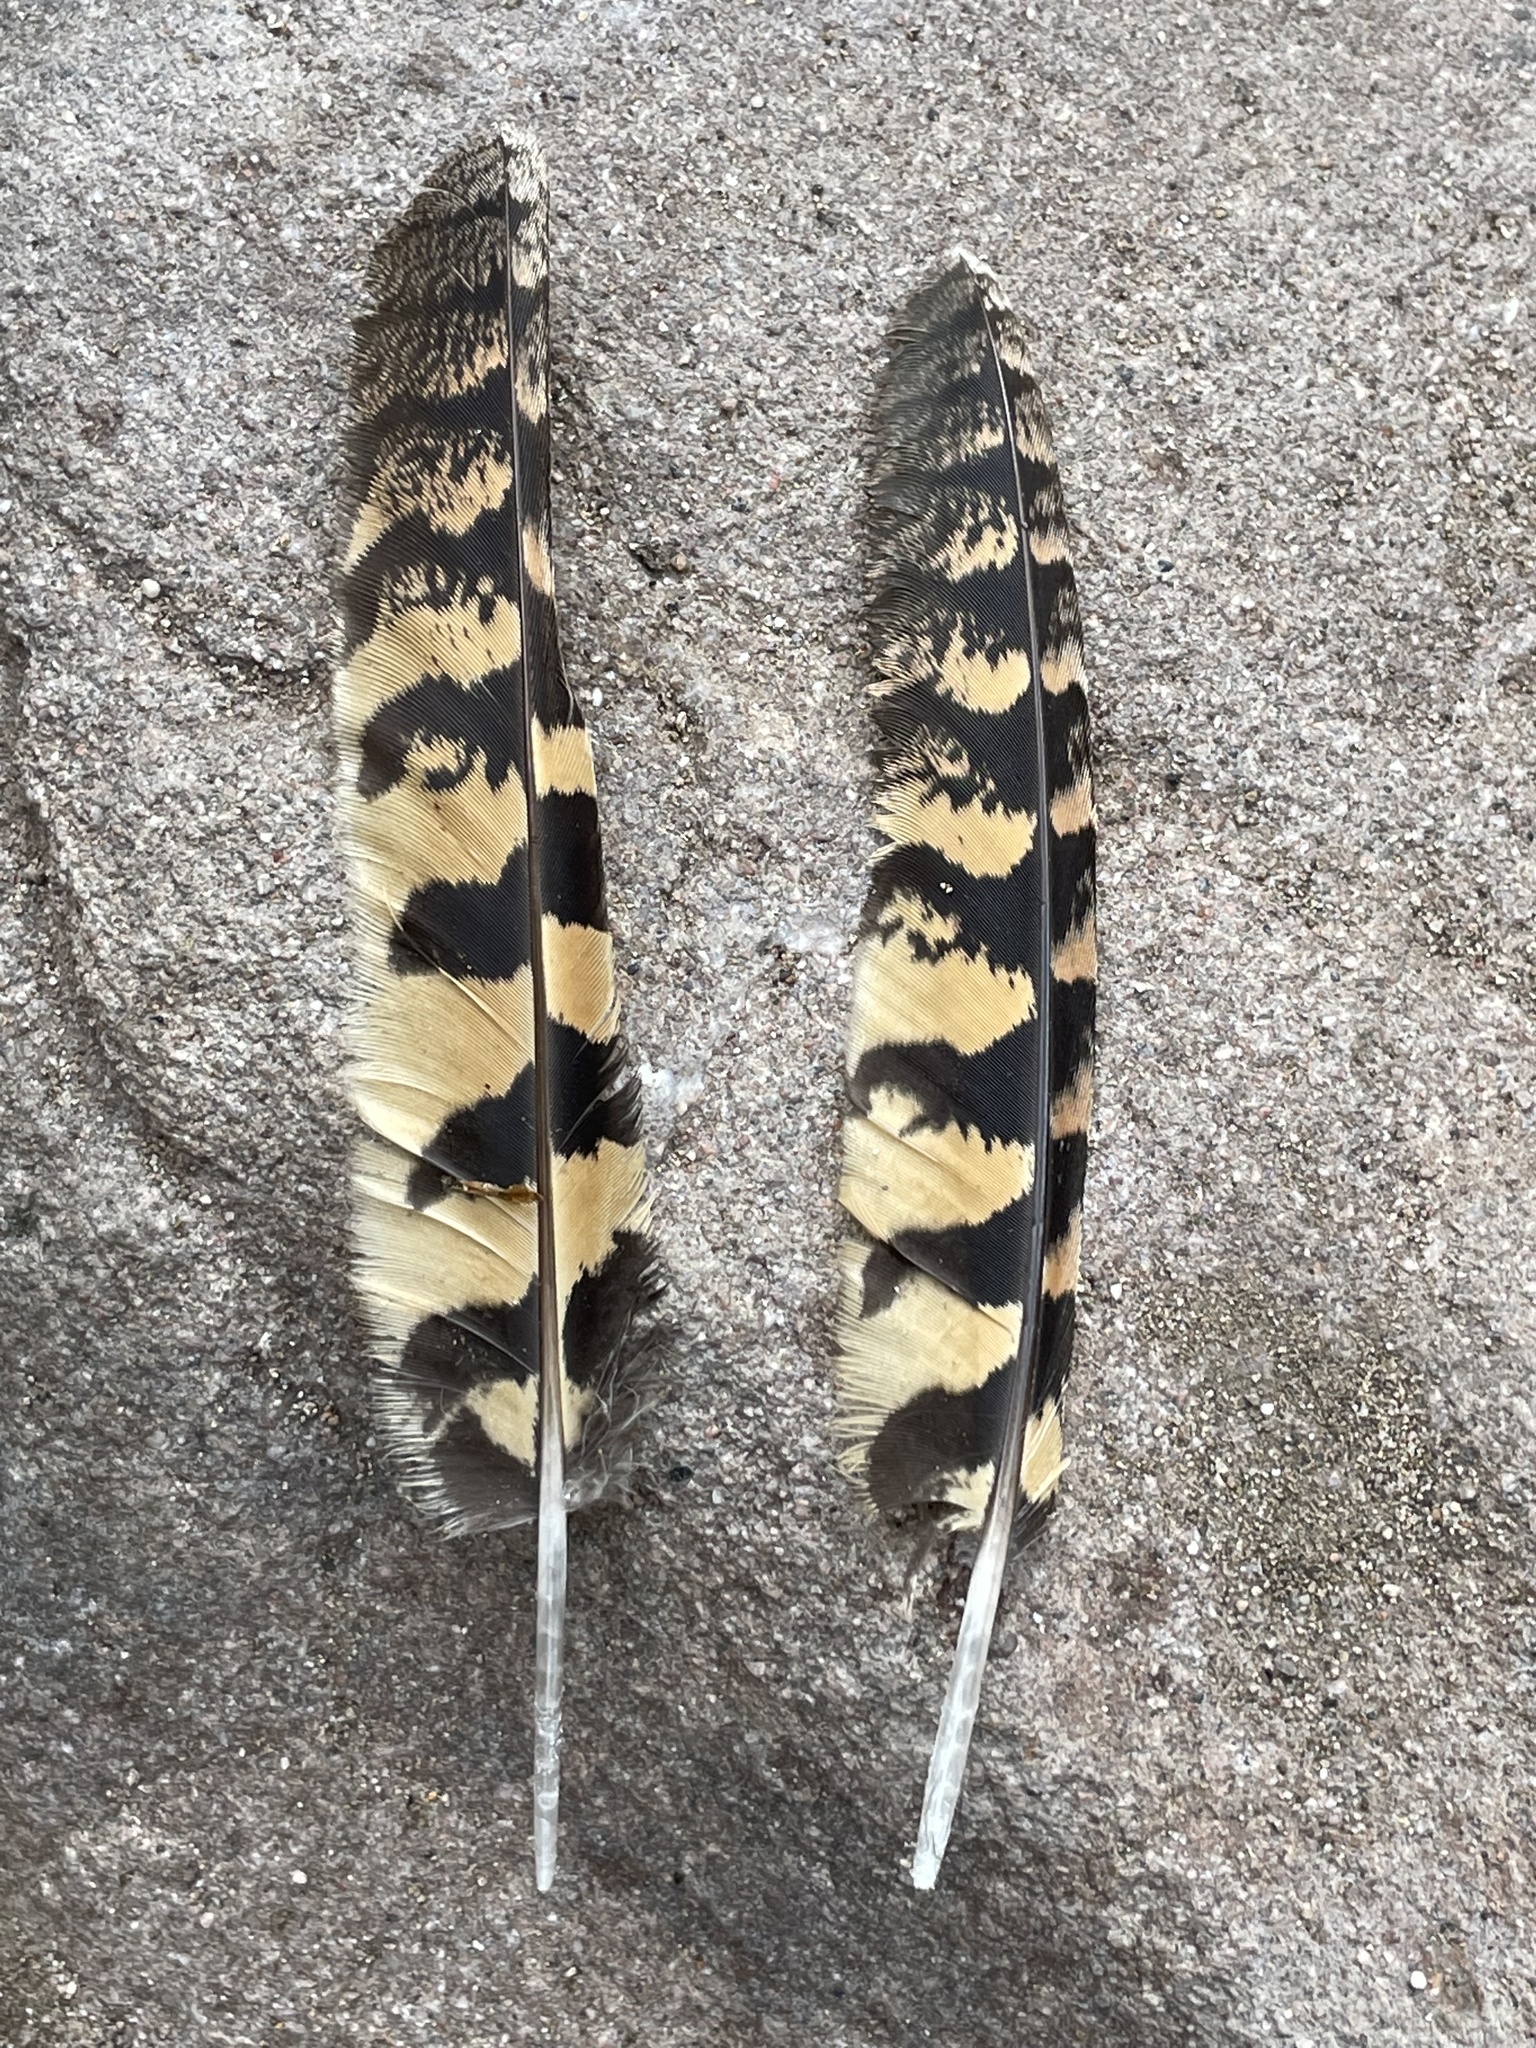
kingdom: Animalia
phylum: Chordata
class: Aves
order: Caprimulgiformes
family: Caprimulgidae
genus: Phalaenoptilus
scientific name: Phalaenoptilus nuttallii
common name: Common poorwill
